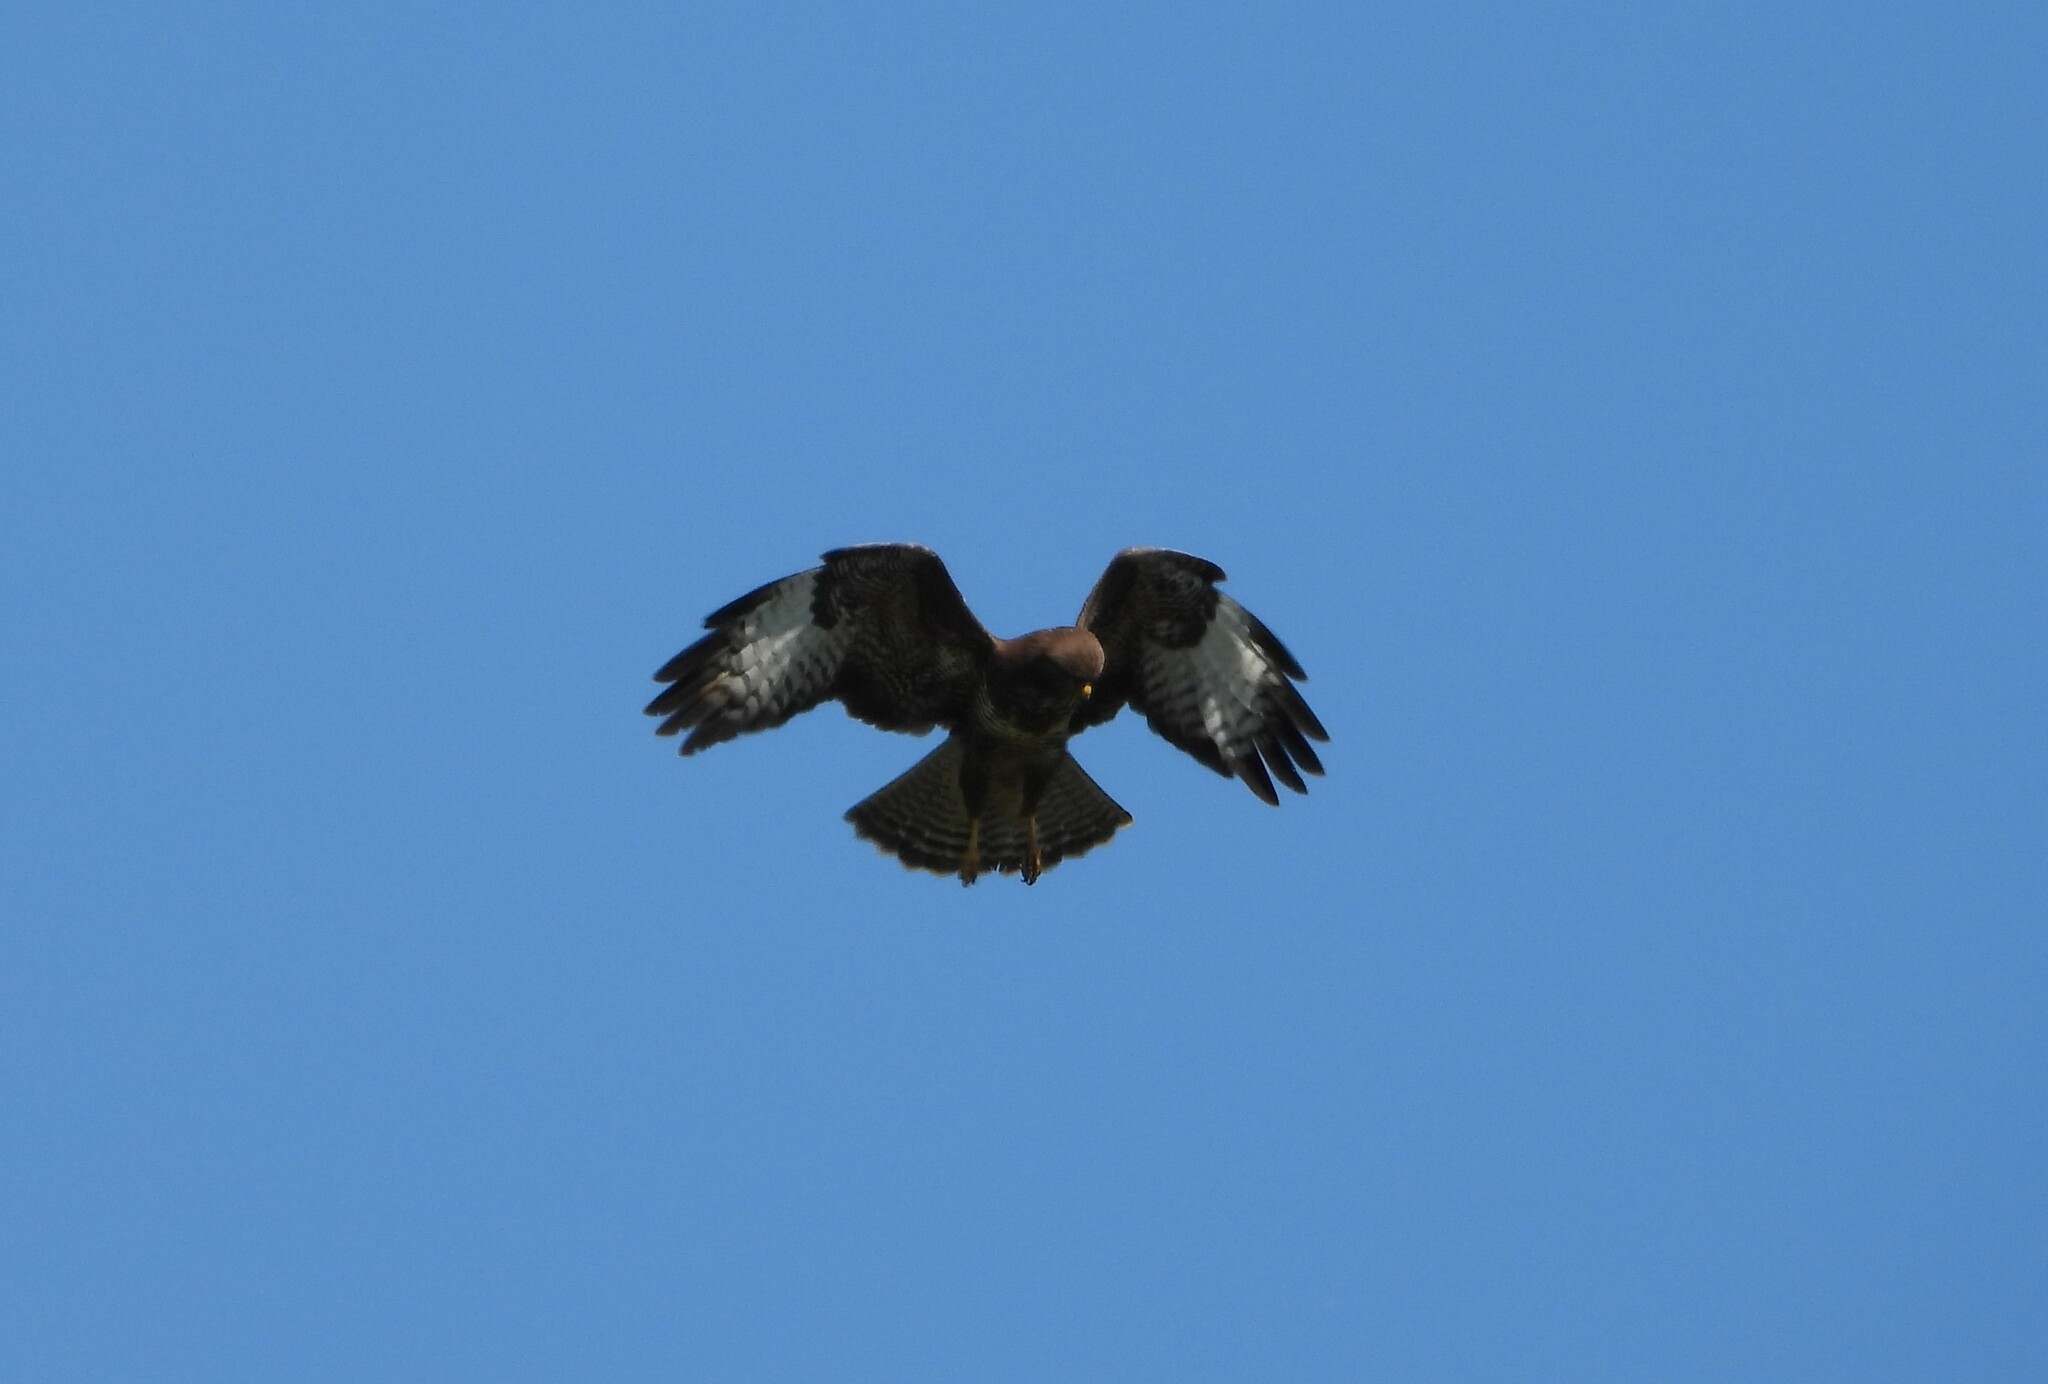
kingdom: Animalia
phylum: Chordata
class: Aves
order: Accipitriformes
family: Accipitridae
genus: Buteo
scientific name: Buteo buteo
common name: Common buzzard
